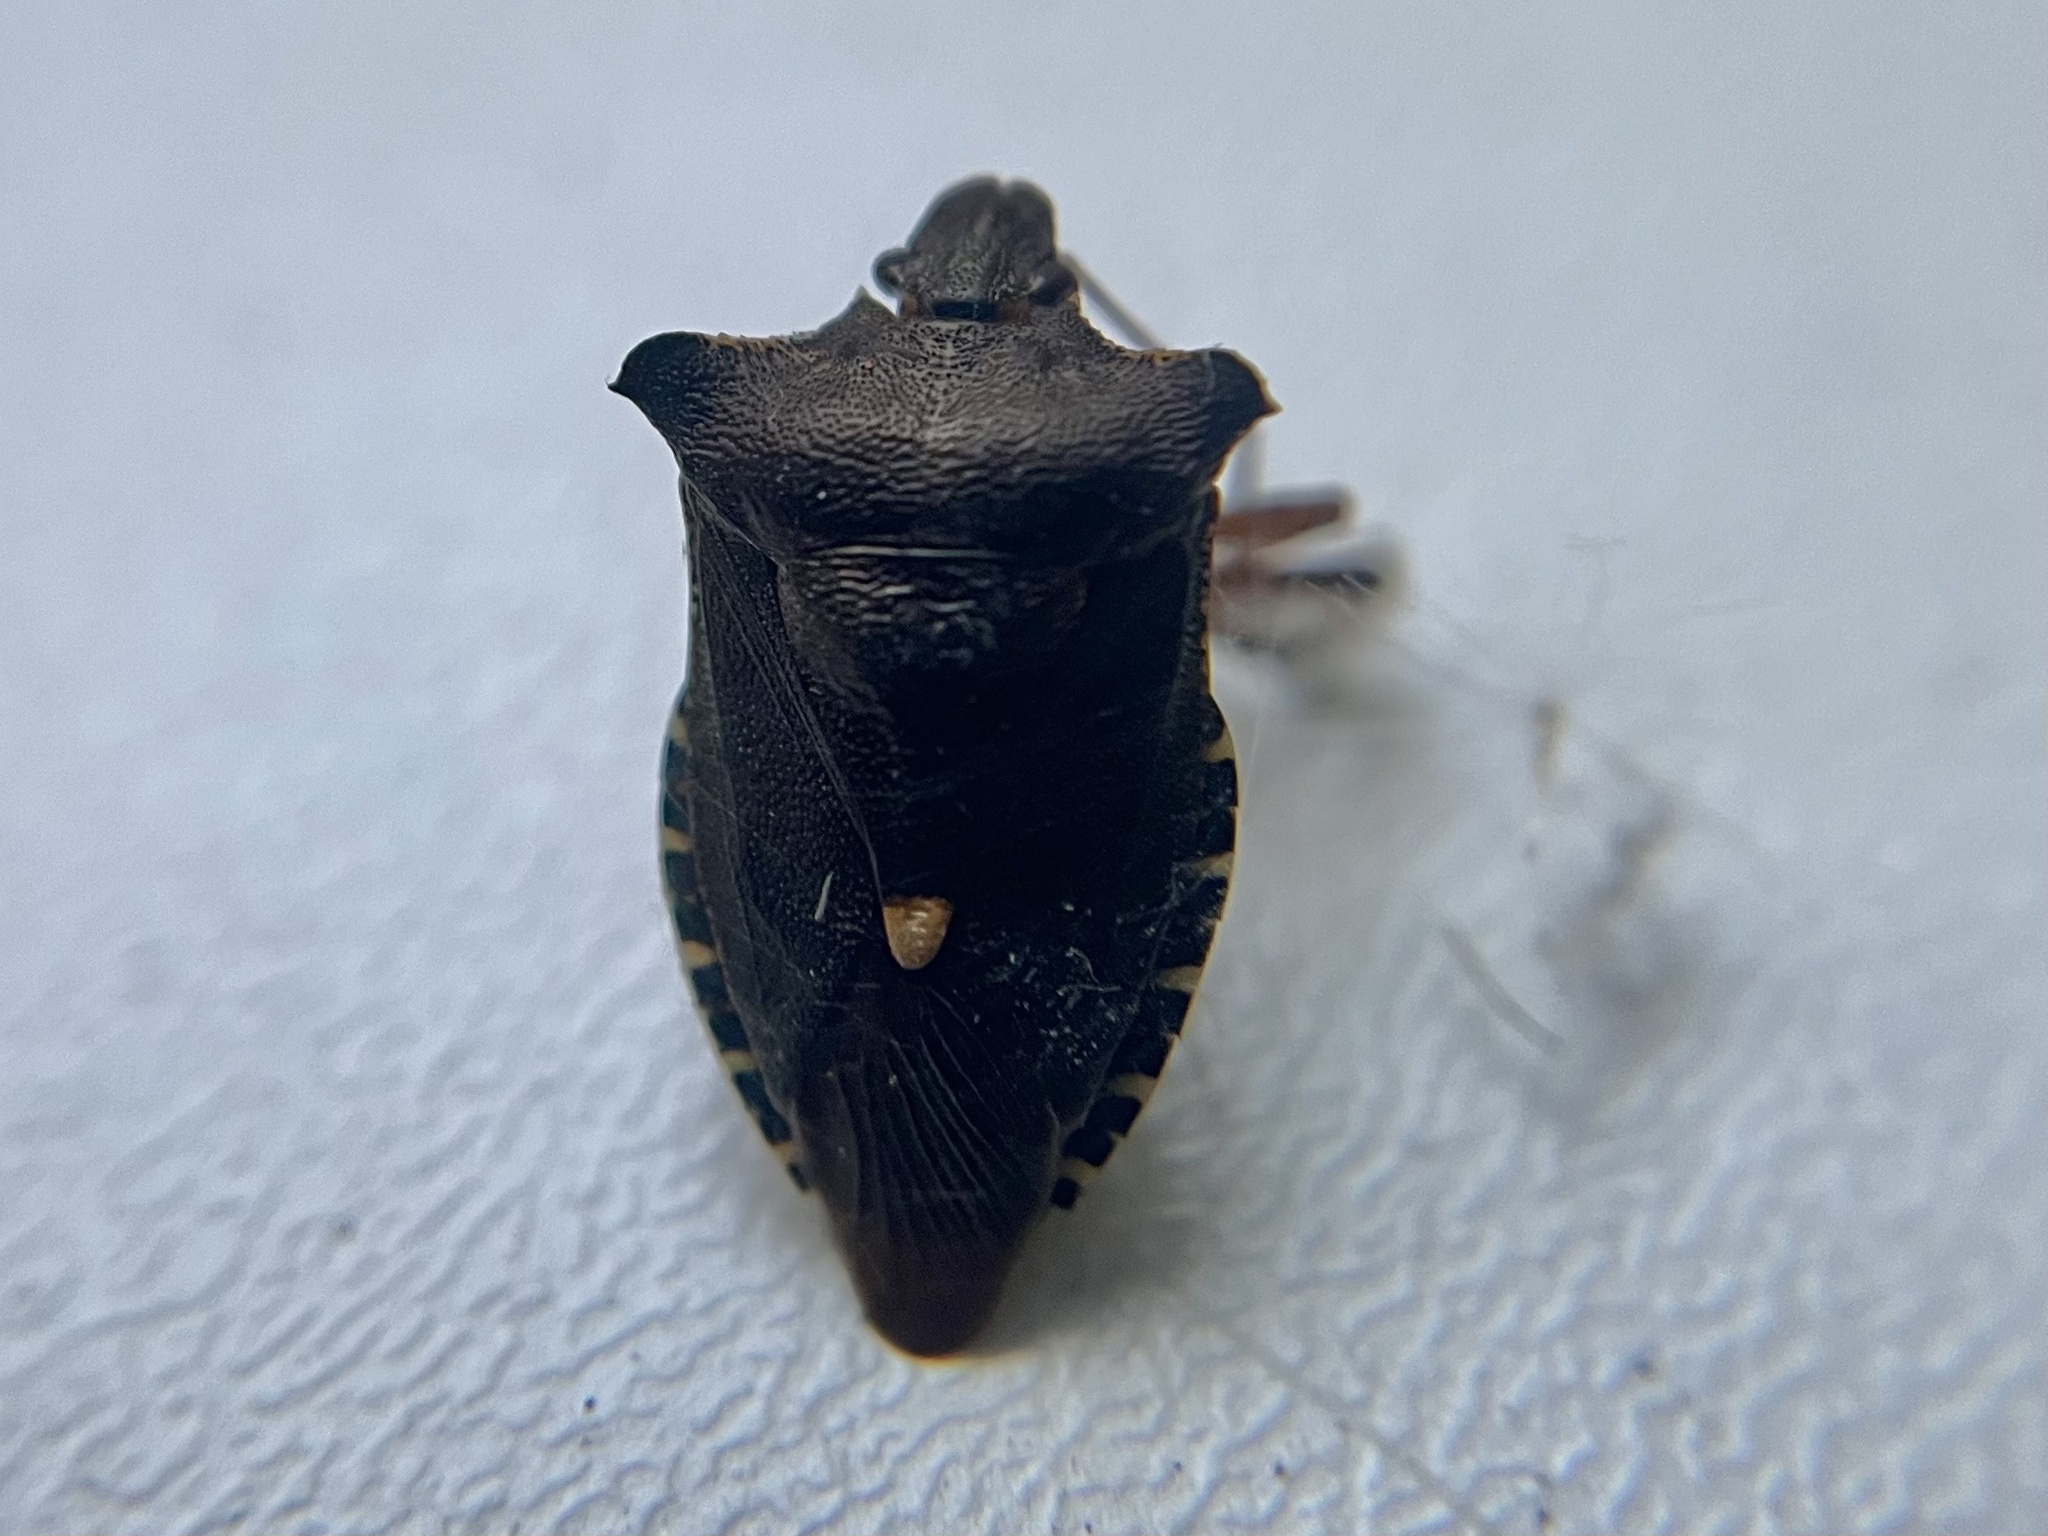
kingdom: Animalia
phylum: Arthropoda
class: Insecta
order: Hemiptera
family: Pentatomidae
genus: Pentatoma
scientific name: Pentatoma rufipes
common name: Forest bug
